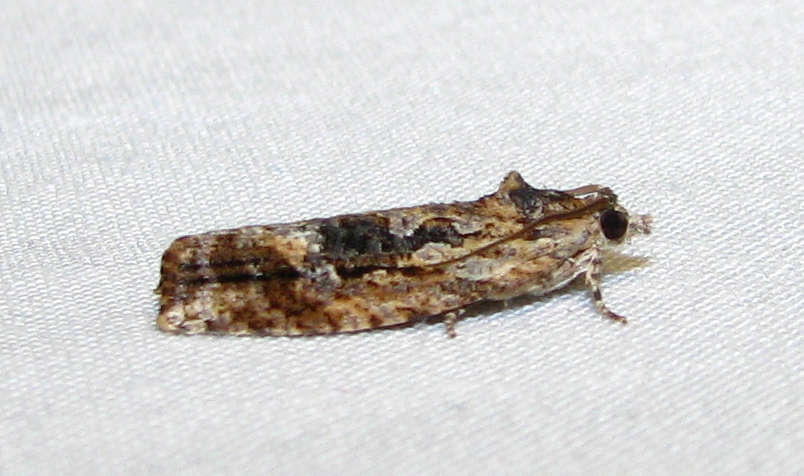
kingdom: Animalia
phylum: Arthropoda
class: Insecta
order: Lepidoptera
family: Tortricidae
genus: Thrincophora
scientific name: Thrincophora lignigerana
